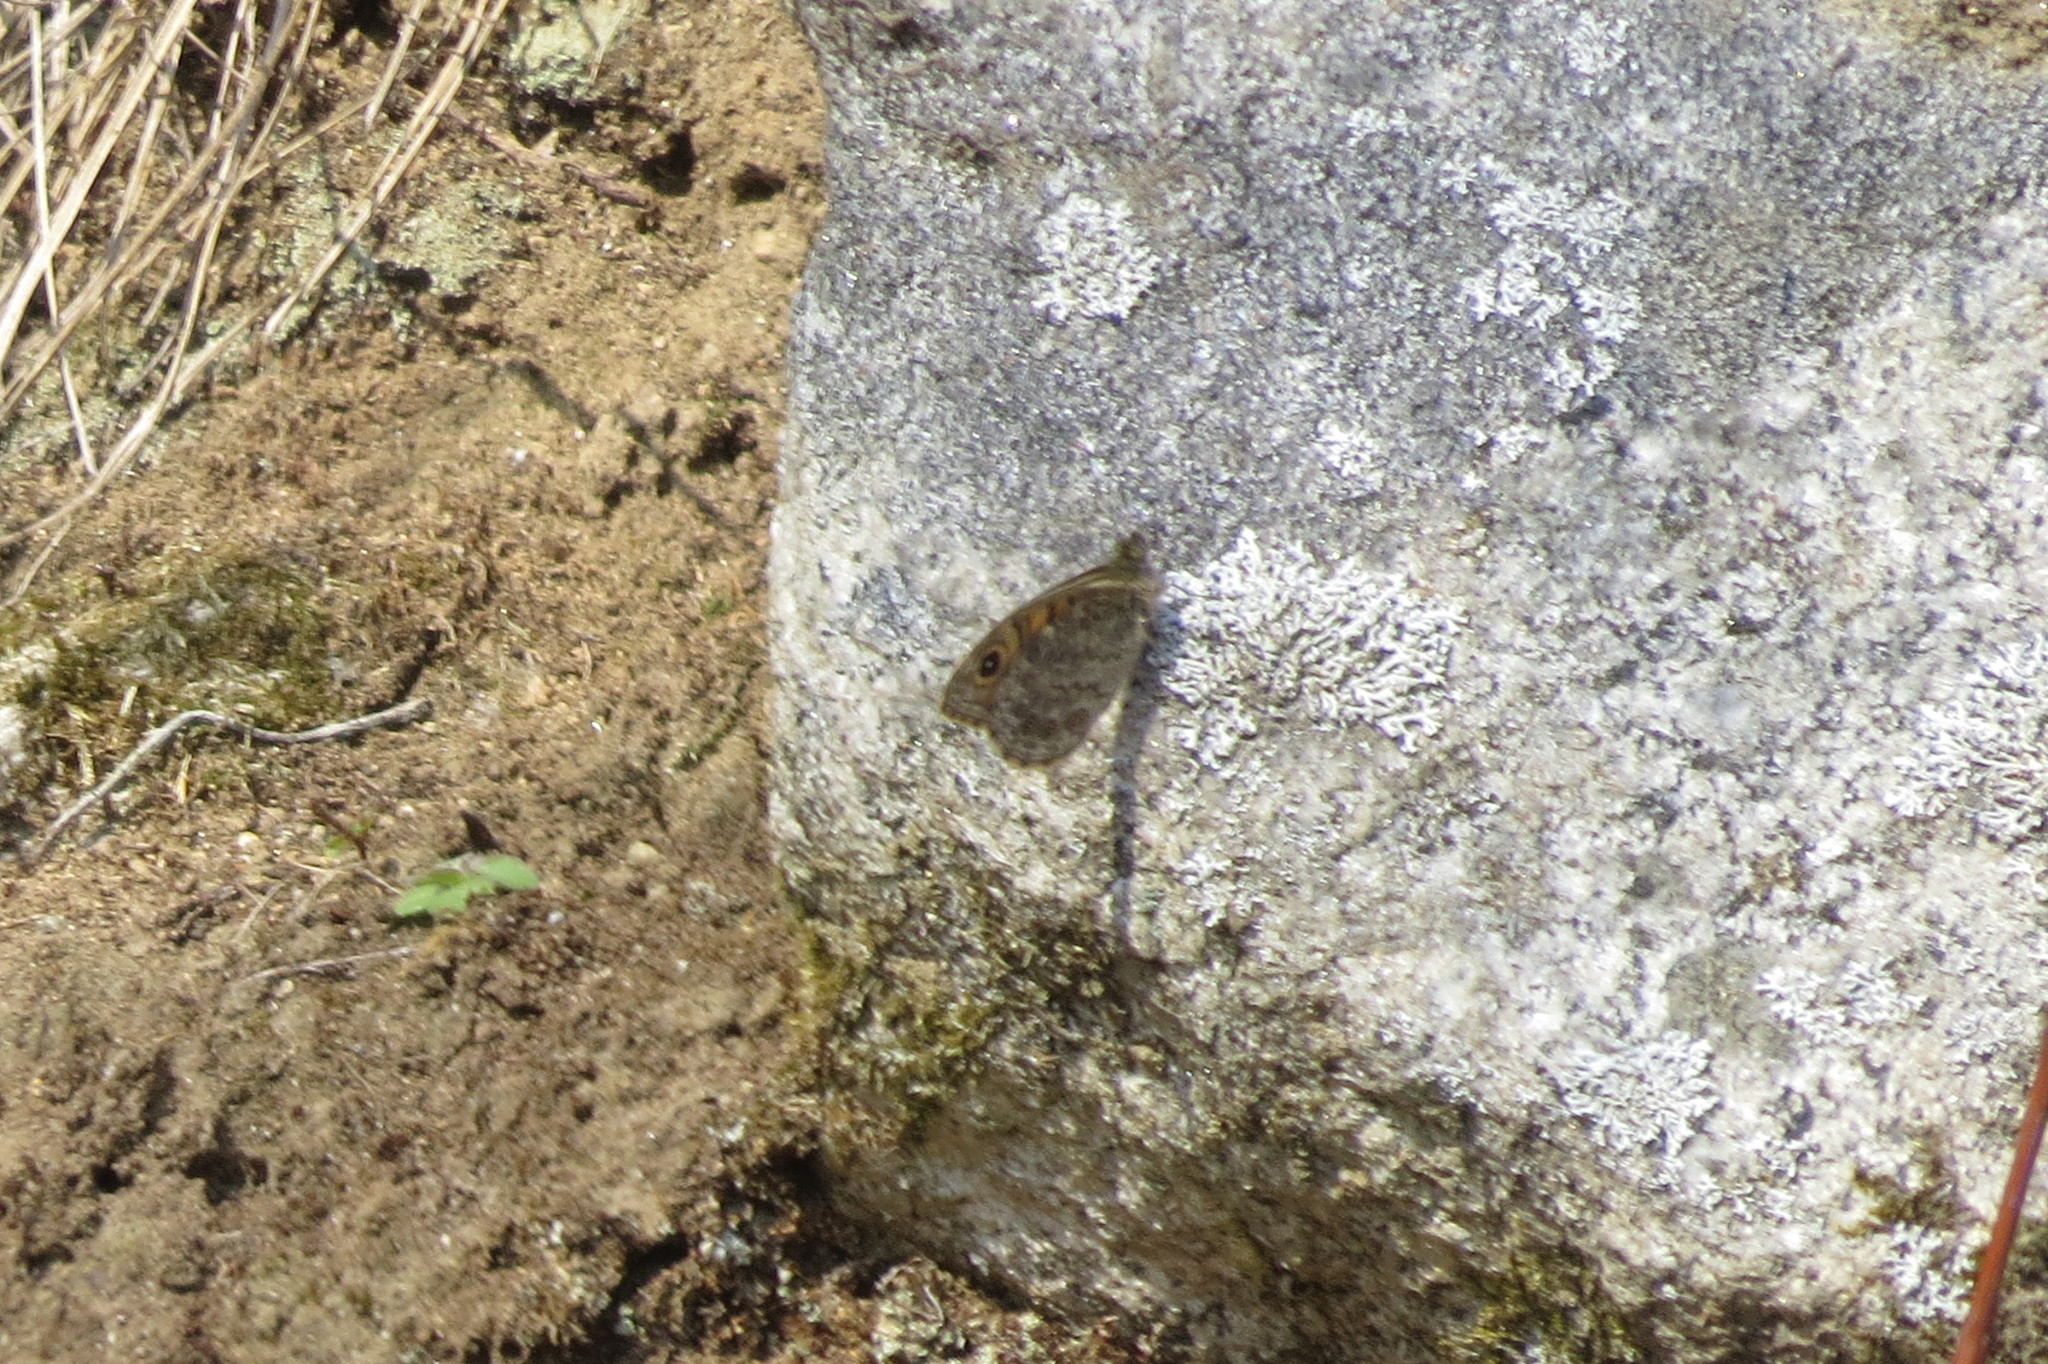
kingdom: Animalia
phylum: Arthropoda
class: Insecta
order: Lepidoptera
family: Nymphalidae
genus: Pararge
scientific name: Pararge Lasiommata megera
